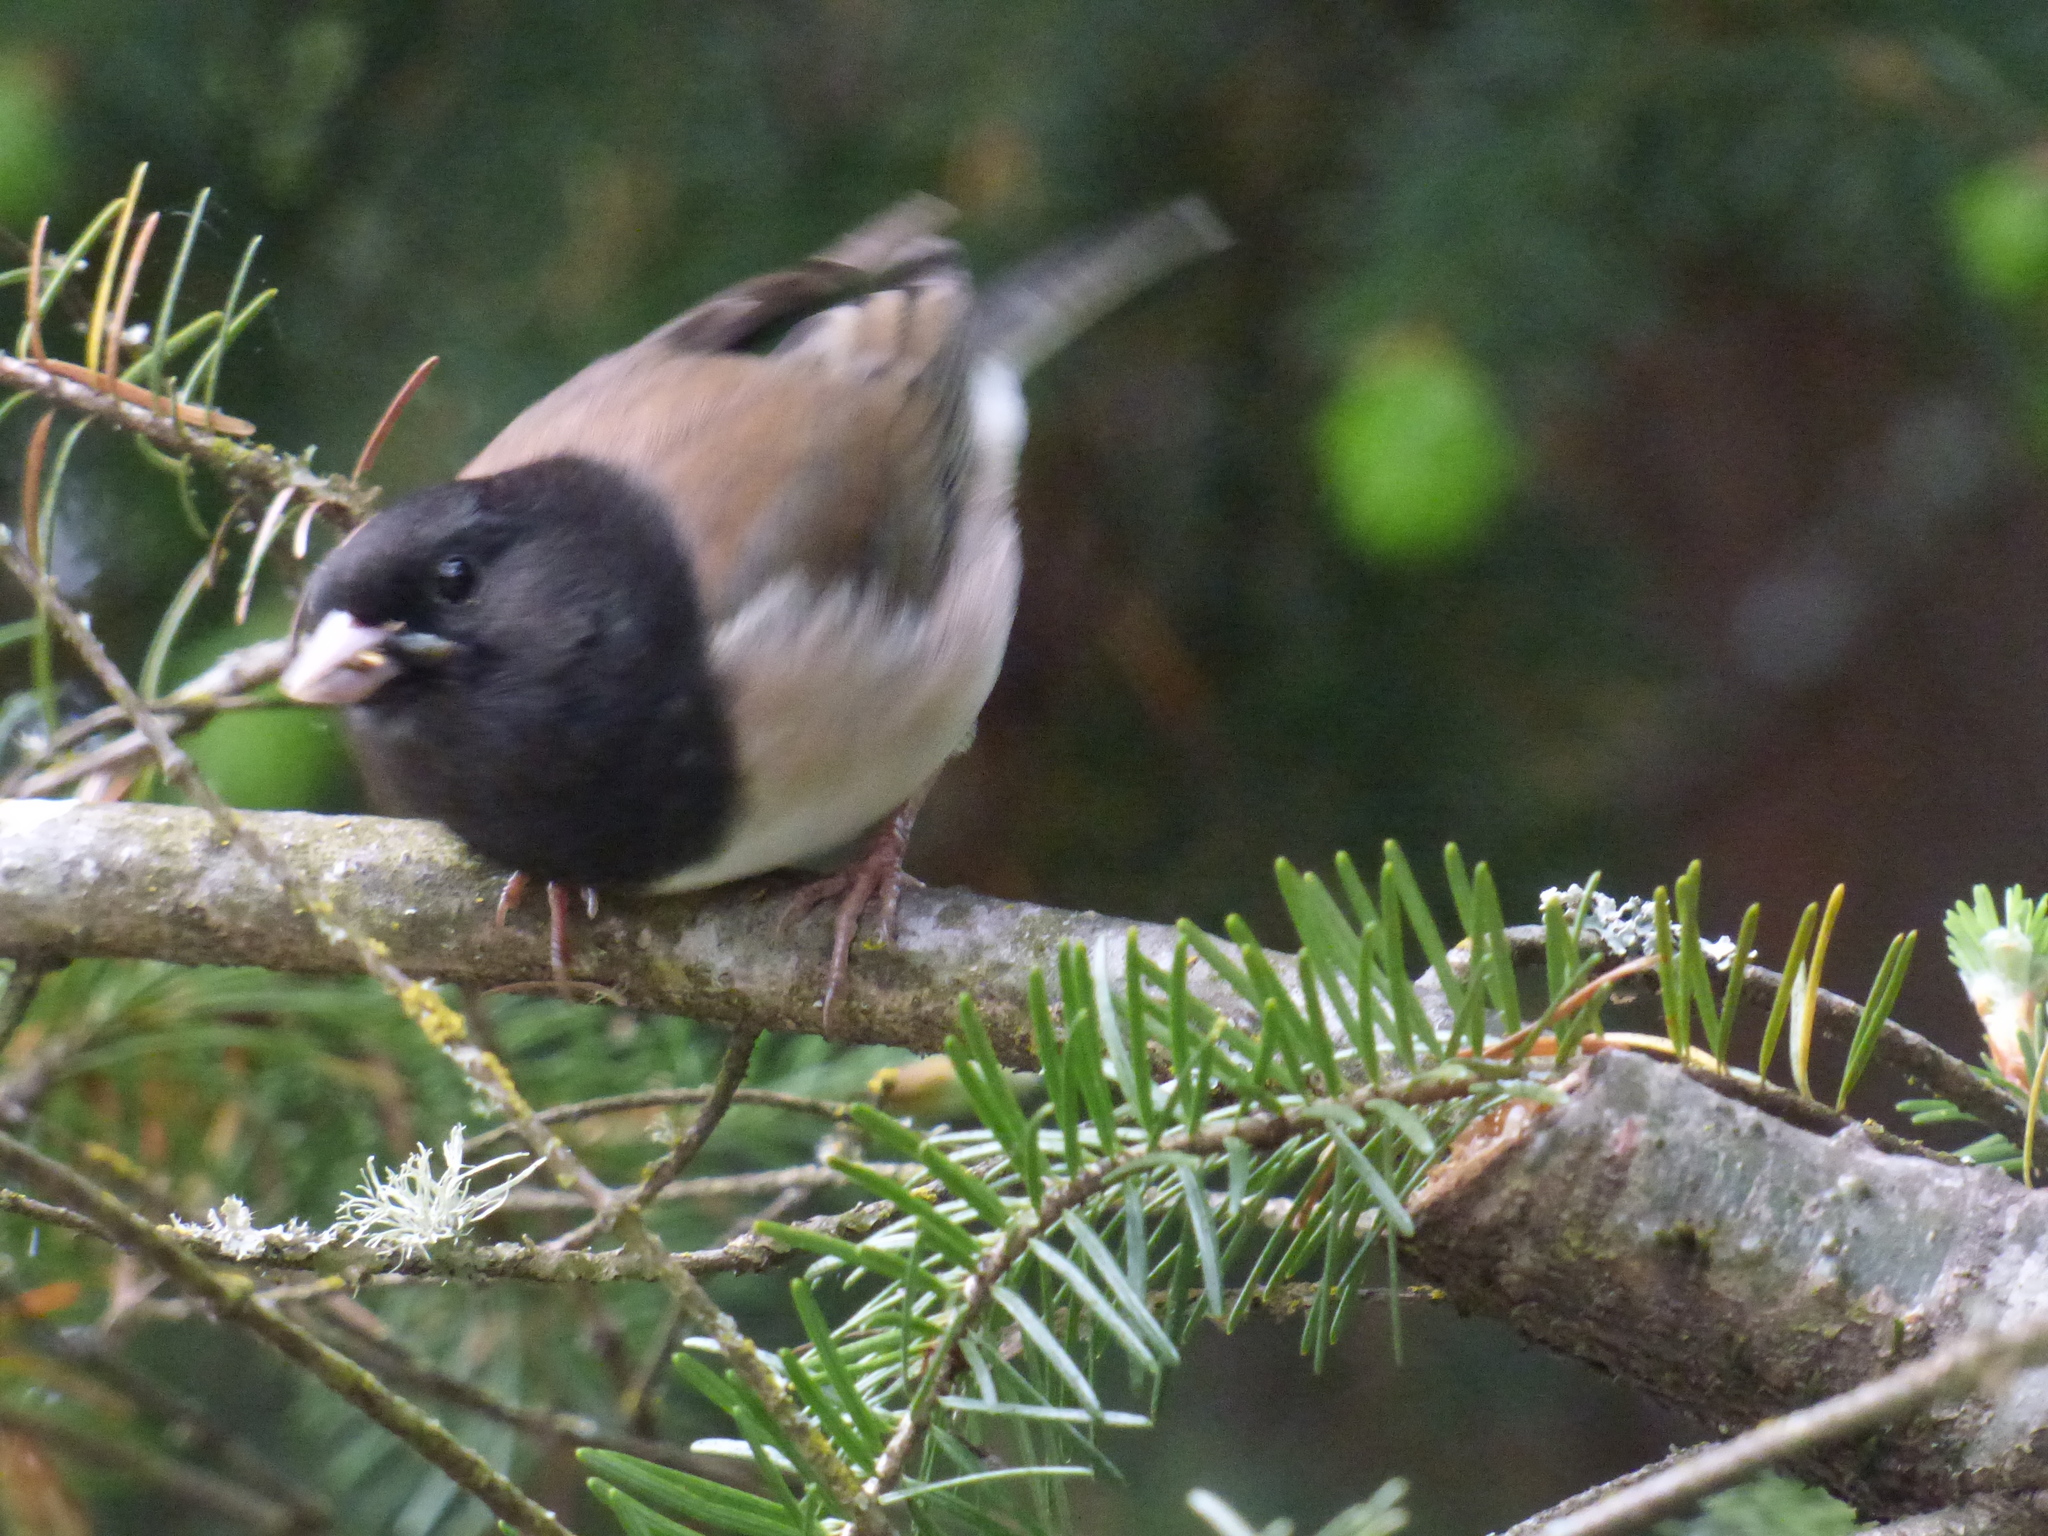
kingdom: Animalia
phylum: Chordata
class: Aves
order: Passeriformes
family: Passerellidae
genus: Junco
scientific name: Junco hyemalis
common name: Dark-eyed junco
